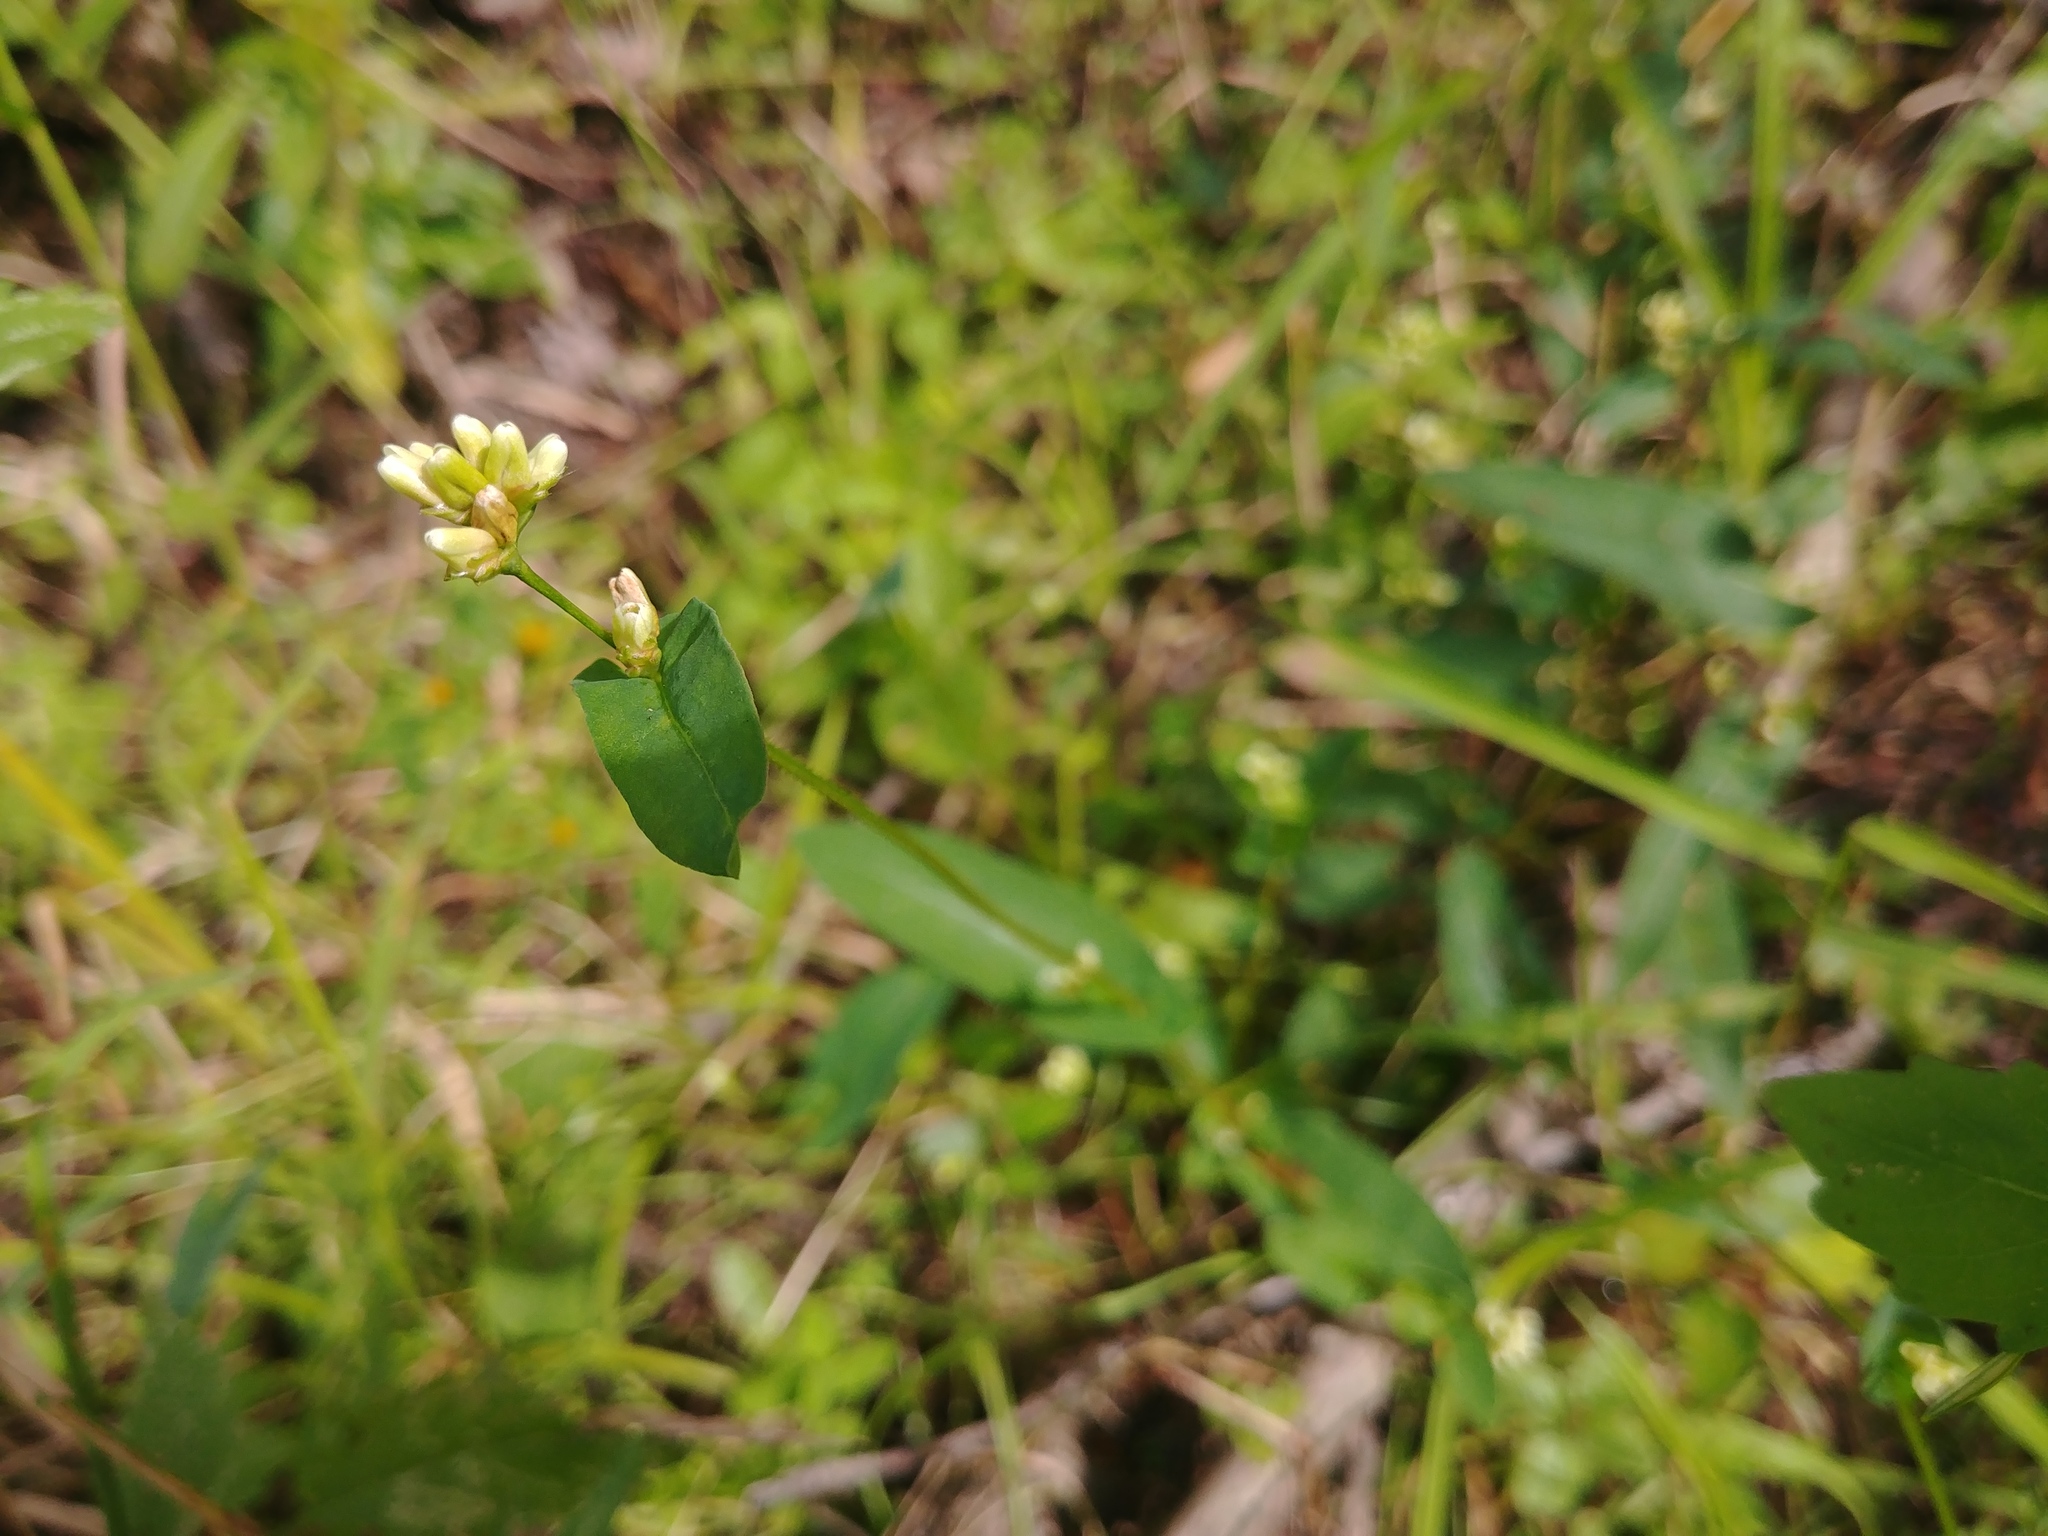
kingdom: Plantae
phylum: Tracheophyta
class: Magnoliopsida
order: Caryophyllales
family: Polygonaceae
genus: Persicaria
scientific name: Persicaria sagittata
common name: American tearthumb
